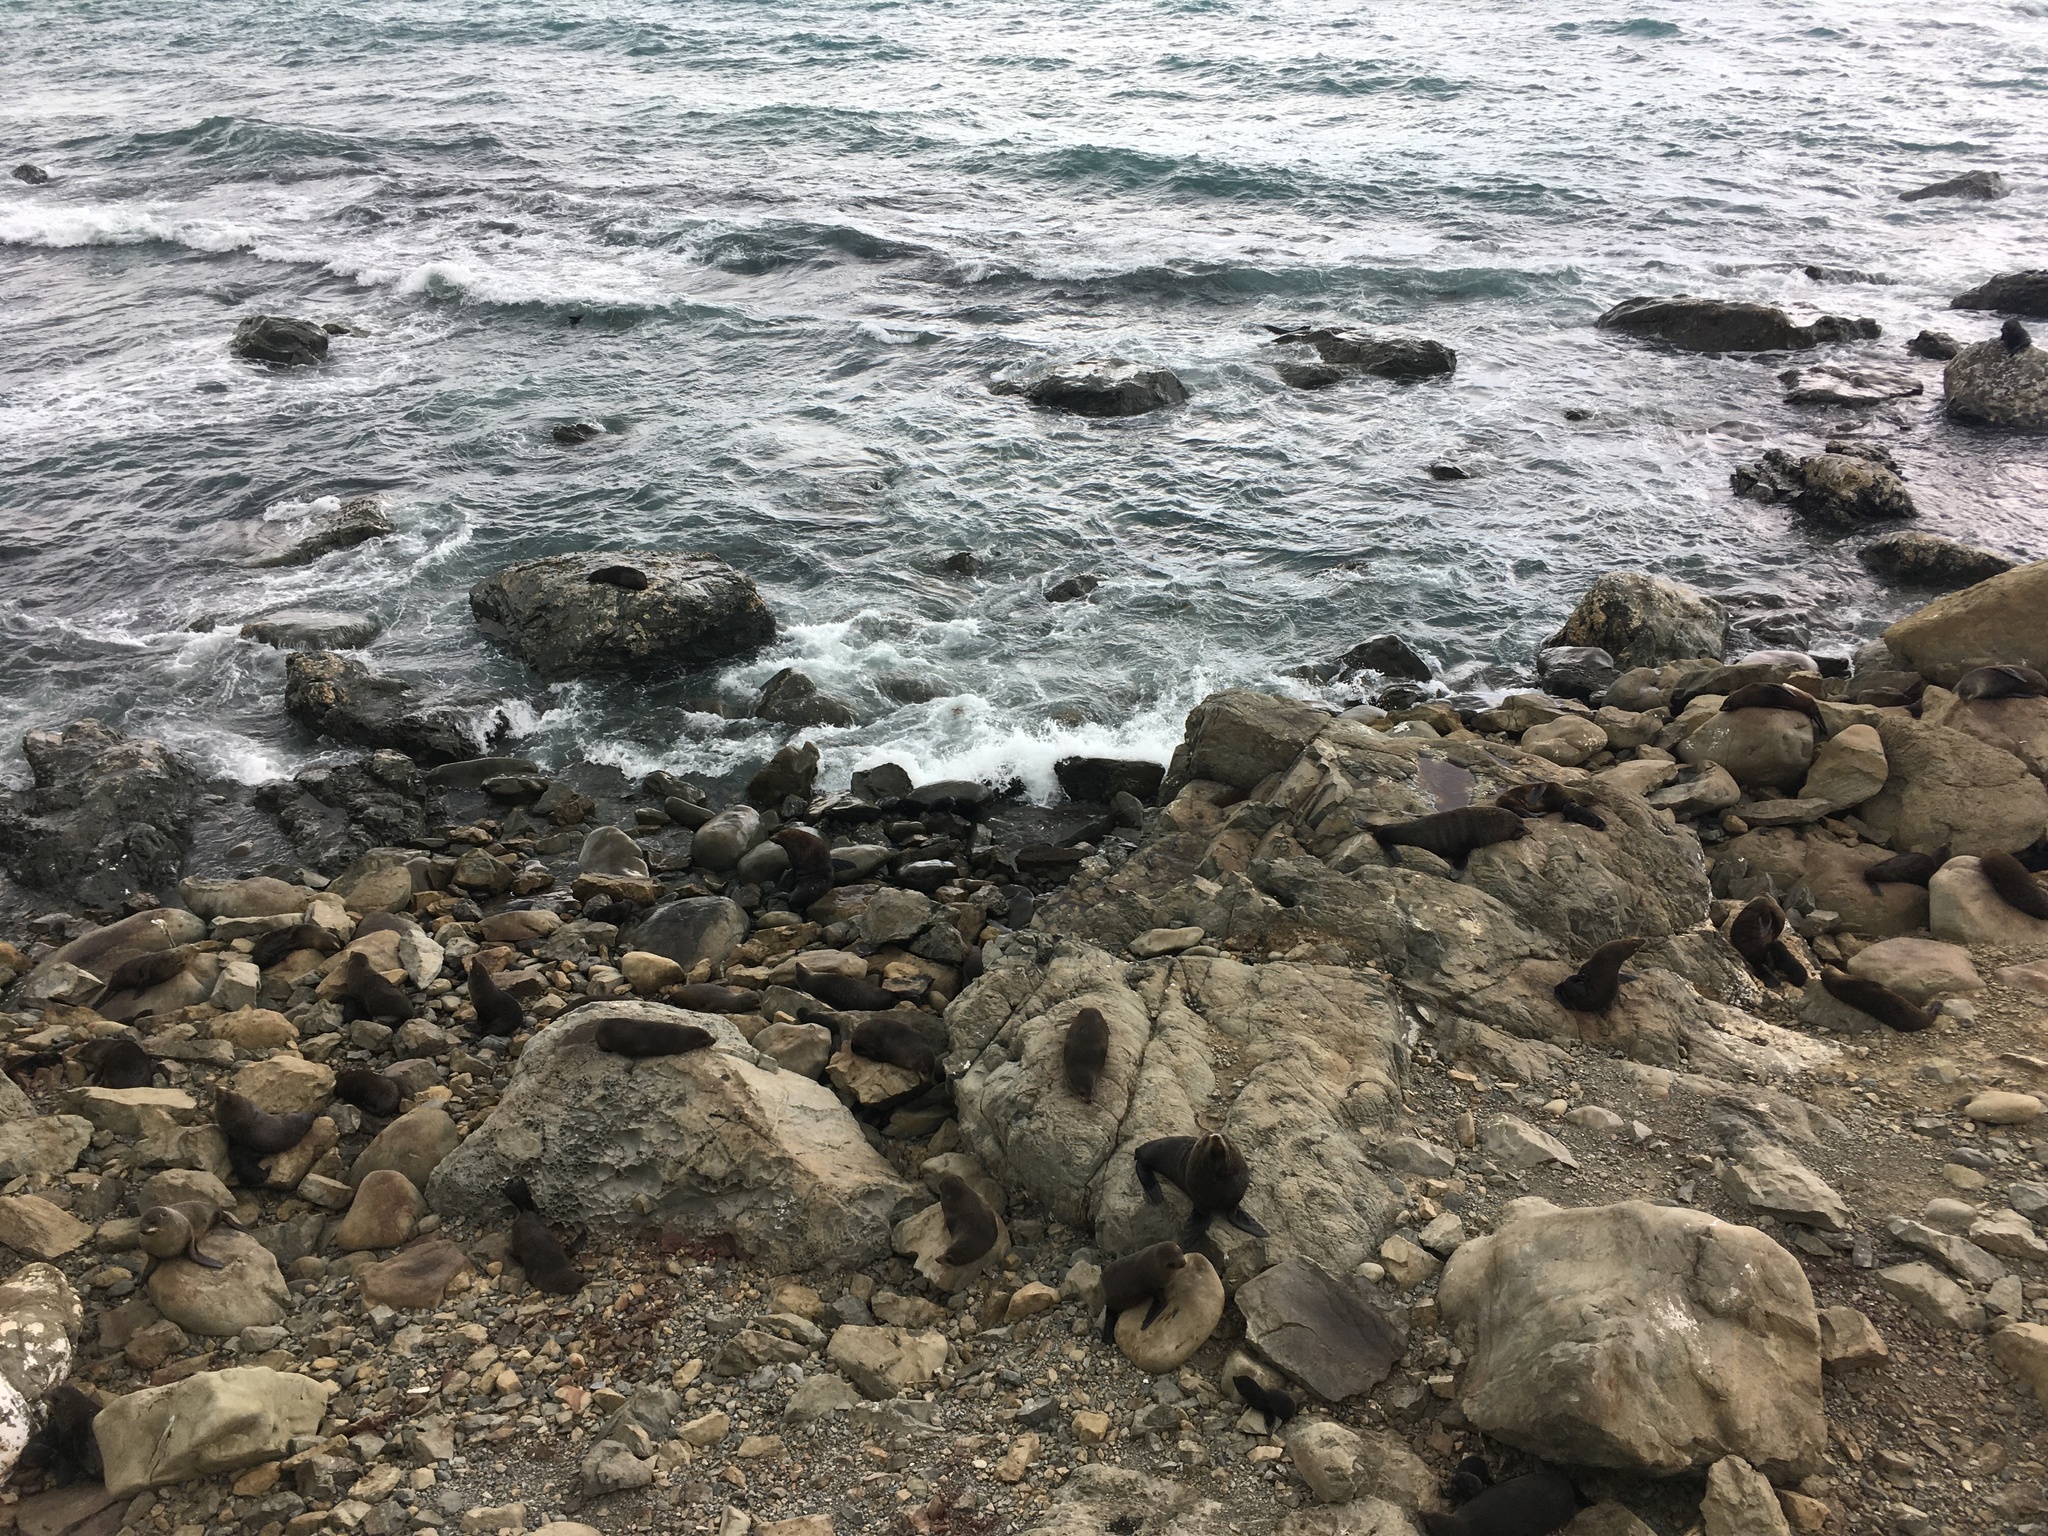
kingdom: Animalia
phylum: Chordata
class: Mammalia
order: Carnivora
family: Otariidae
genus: Arctocephalus
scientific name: Arctocephalus forsteri
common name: New zealand fur seal
